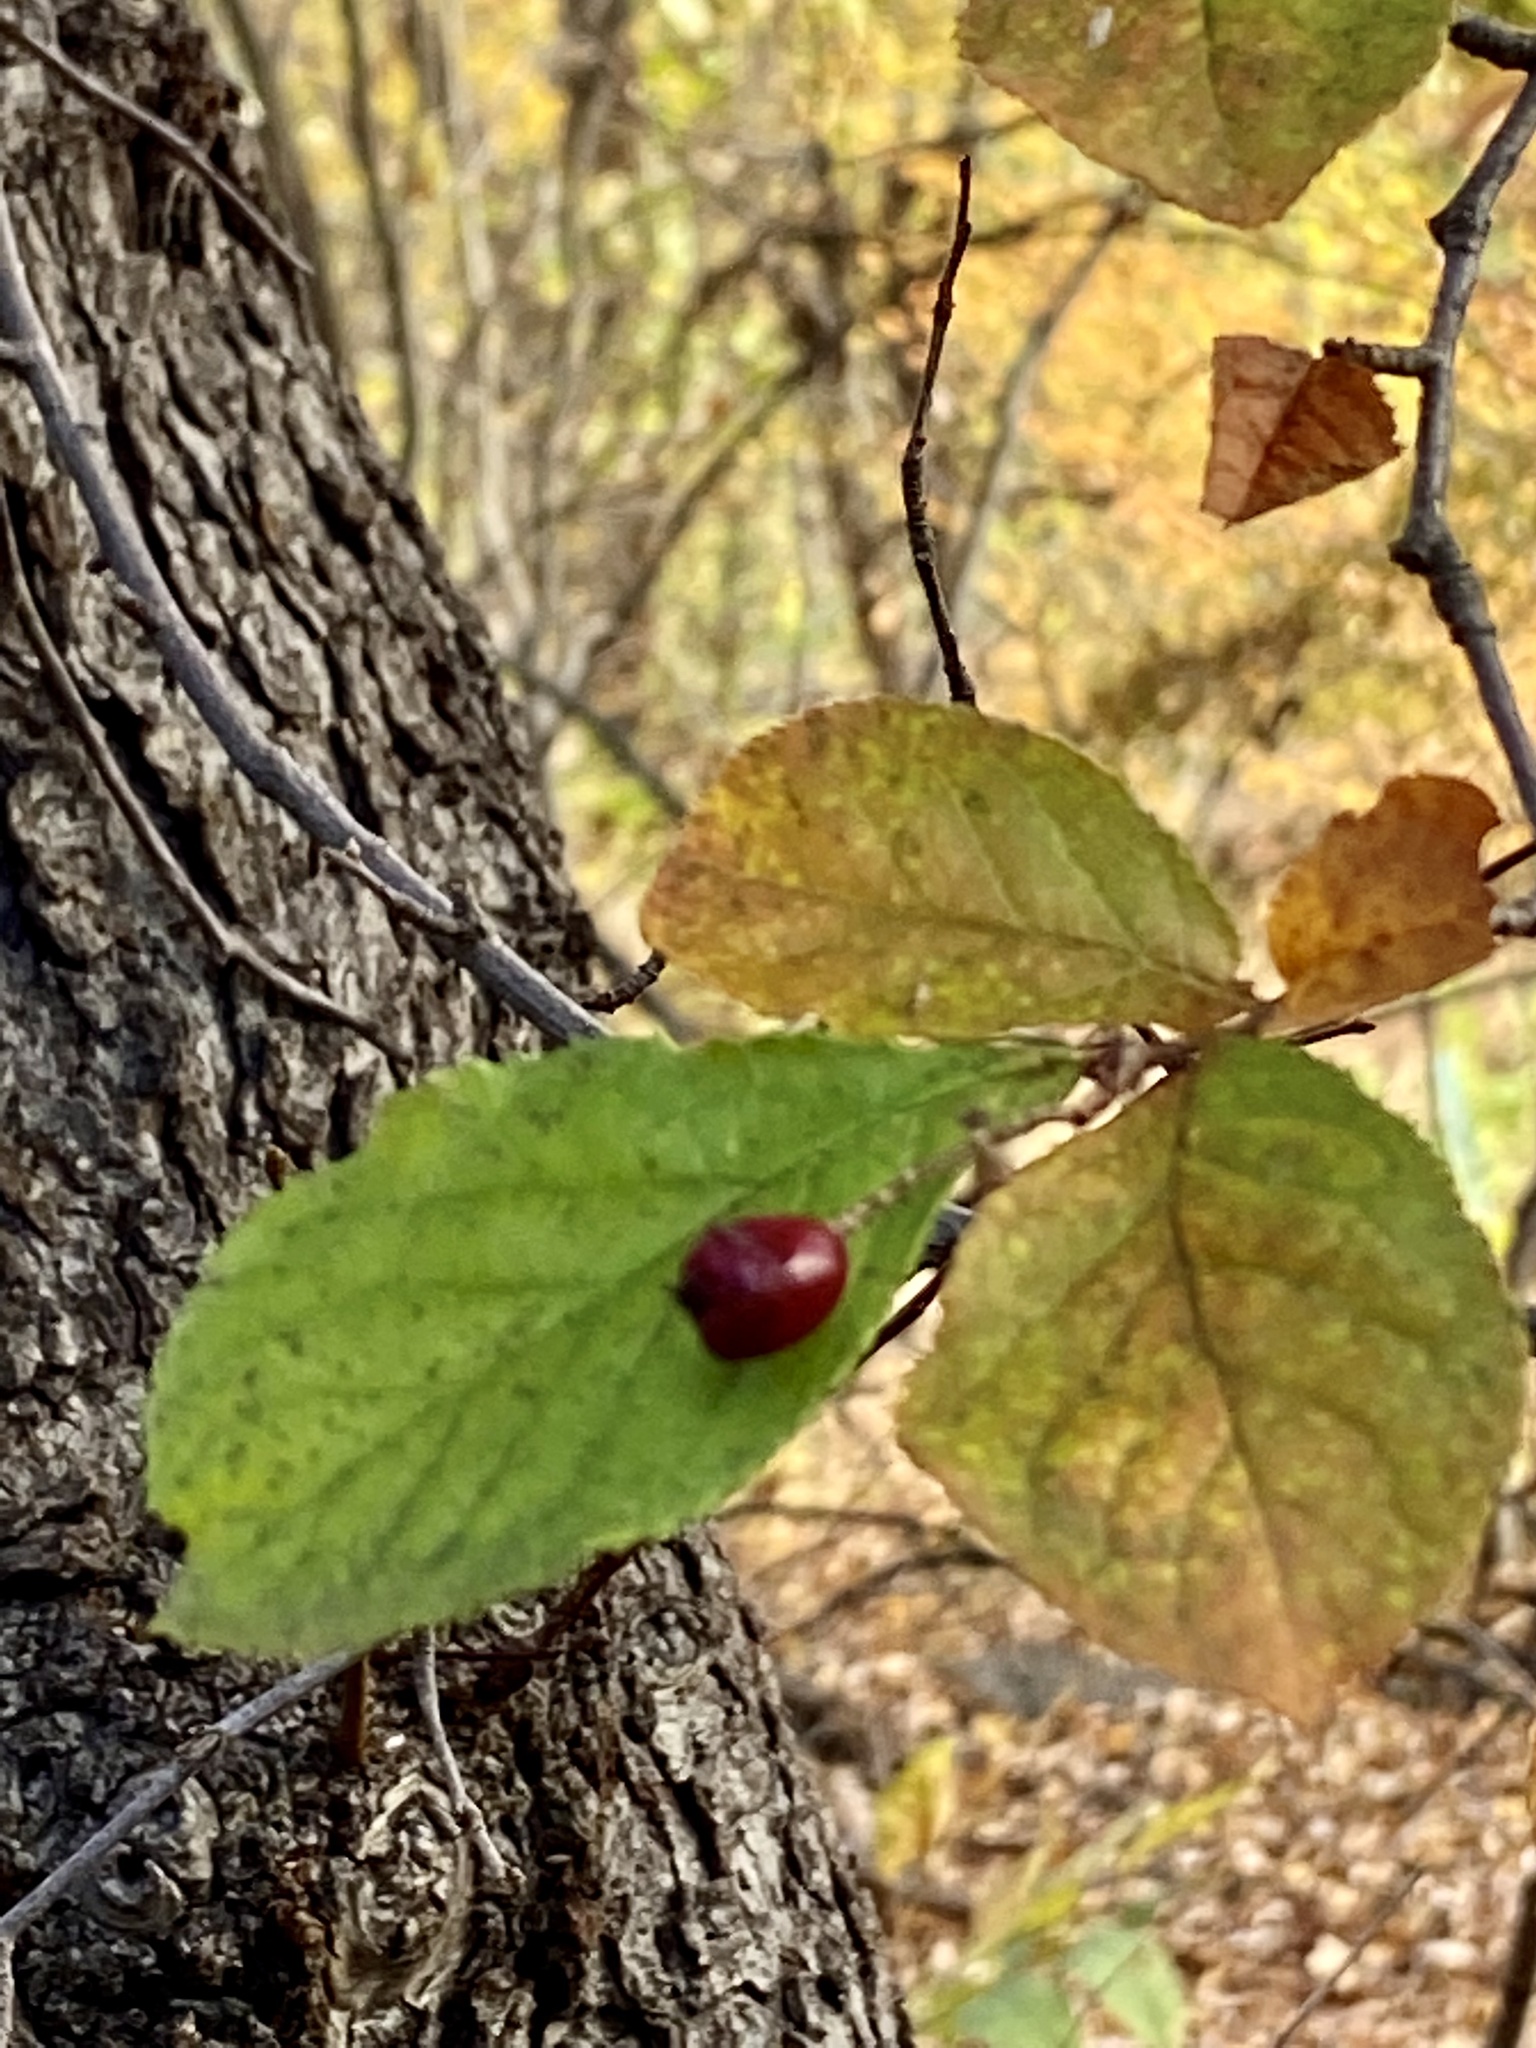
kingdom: Plantae
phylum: Tracheophyta
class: Magnoliopsida
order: Rosales
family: Rosaceae
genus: Pourthiaea
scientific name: Pourthiaea villosa
